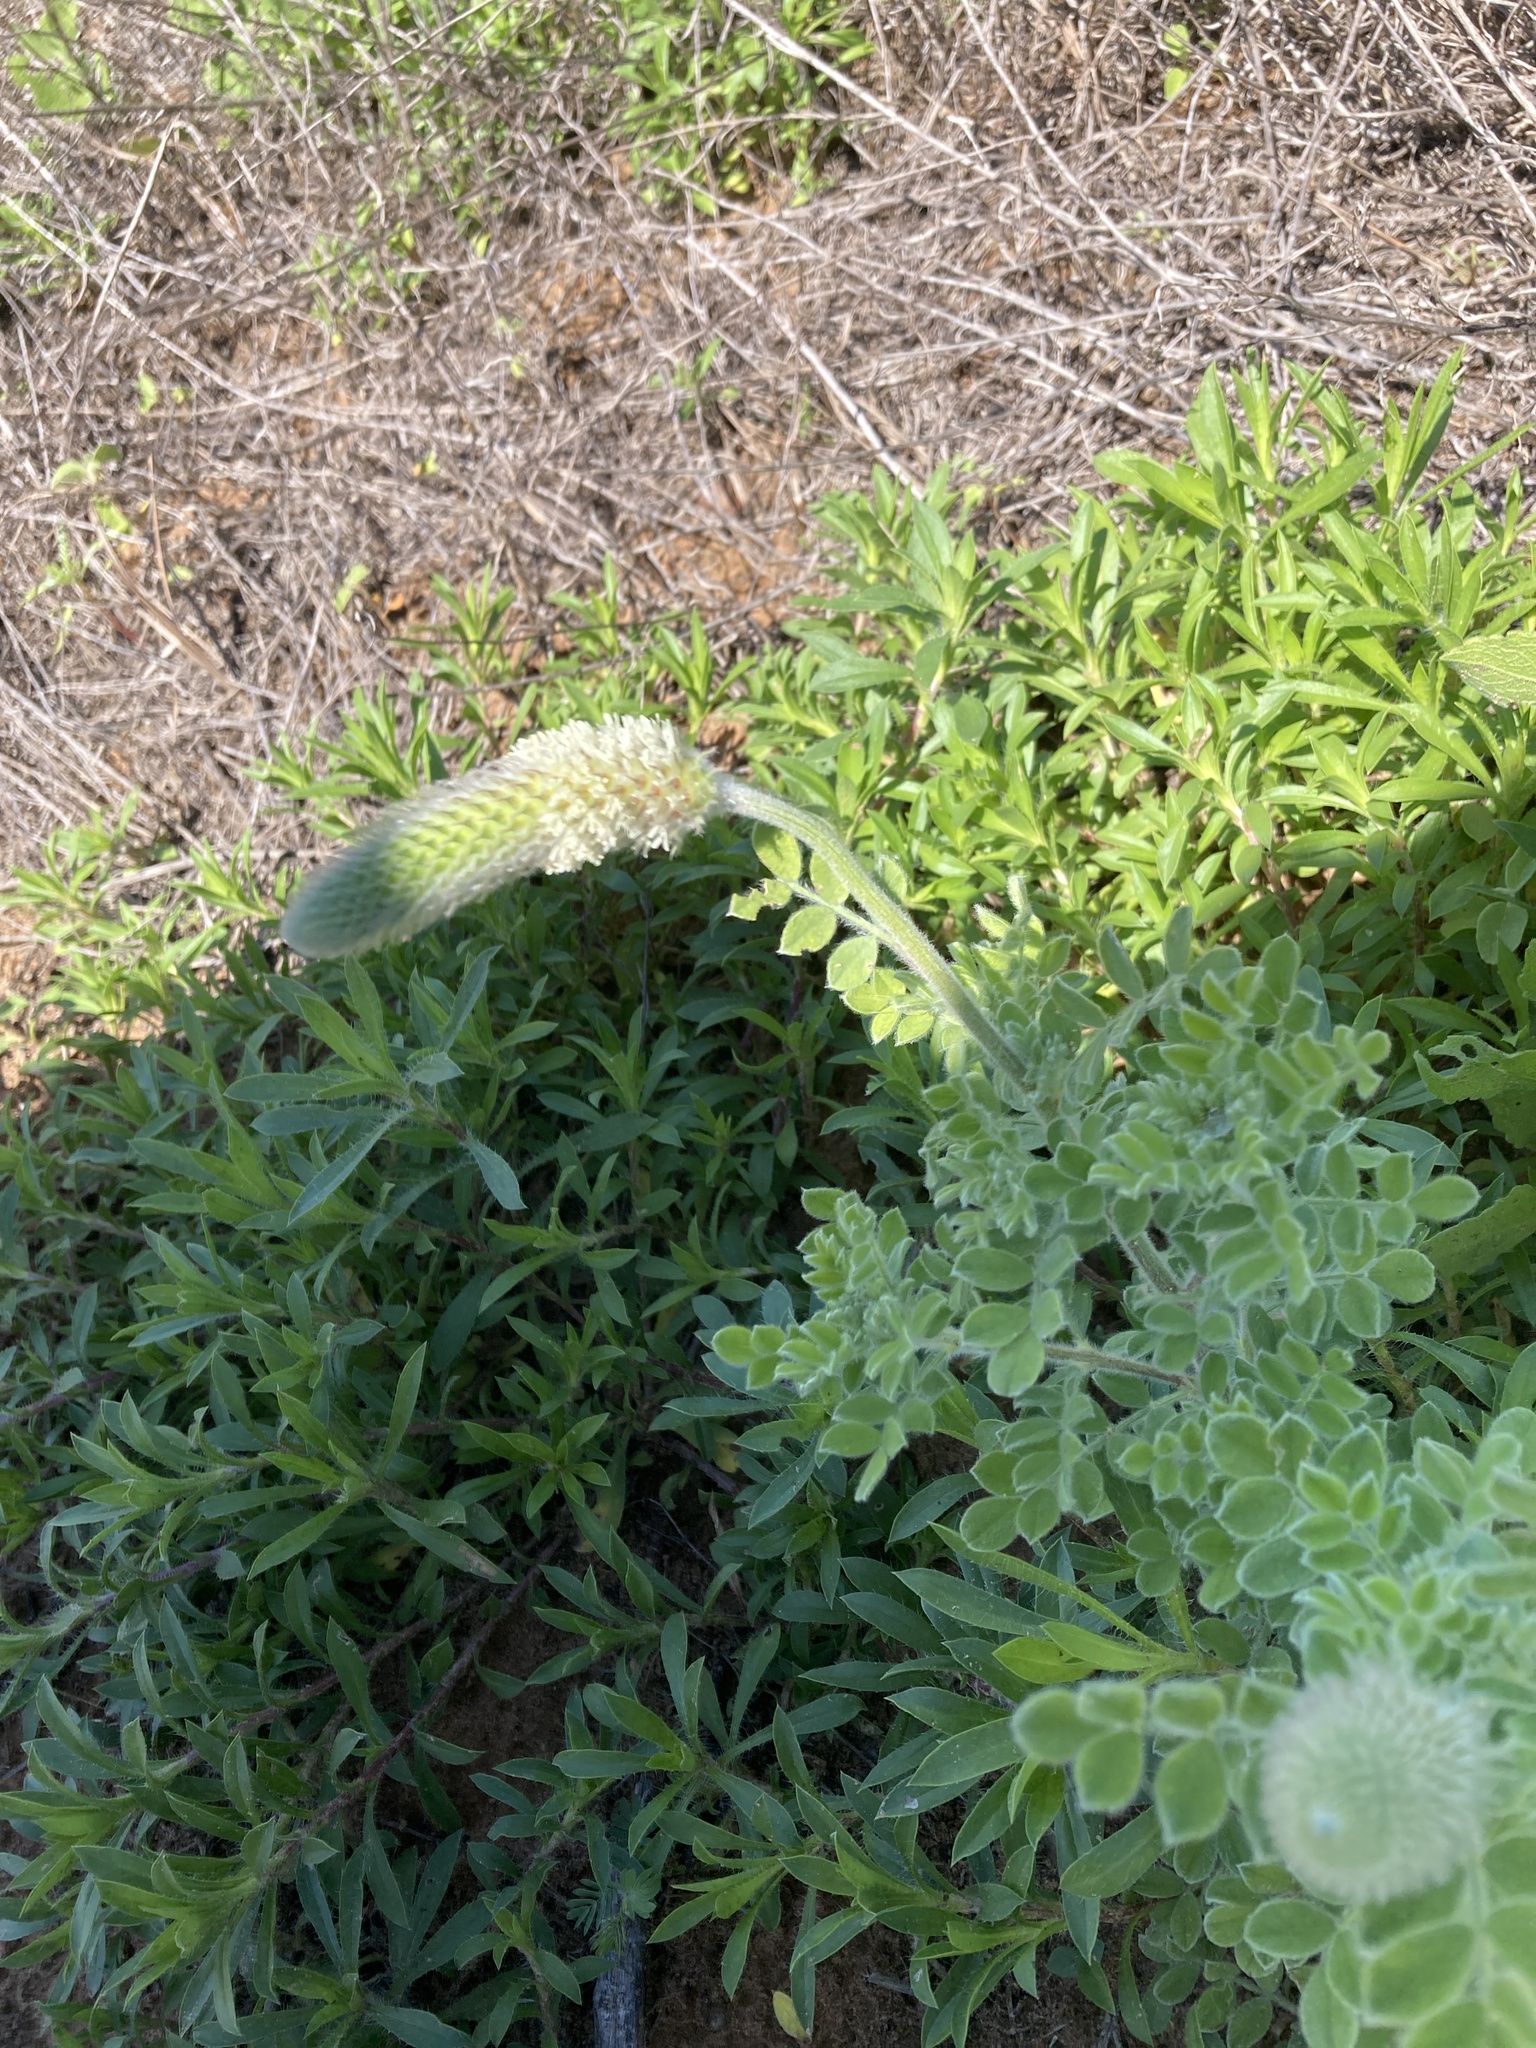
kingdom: Plantae
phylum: Tracheophyta
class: Magnoliopsida
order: Fabales
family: Fabaceae
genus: Dalea
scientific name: Dalea obovata
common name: Pussyfoot
